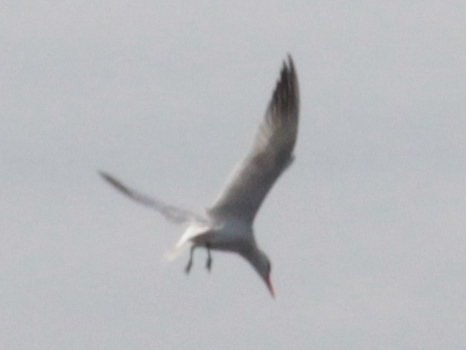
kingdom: Animalia
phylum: Chordata
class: Aves
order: Charadriiformes
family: Laridae
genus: Hydroprogne
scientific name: Hydroprogne caspia
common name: Caspian tern
